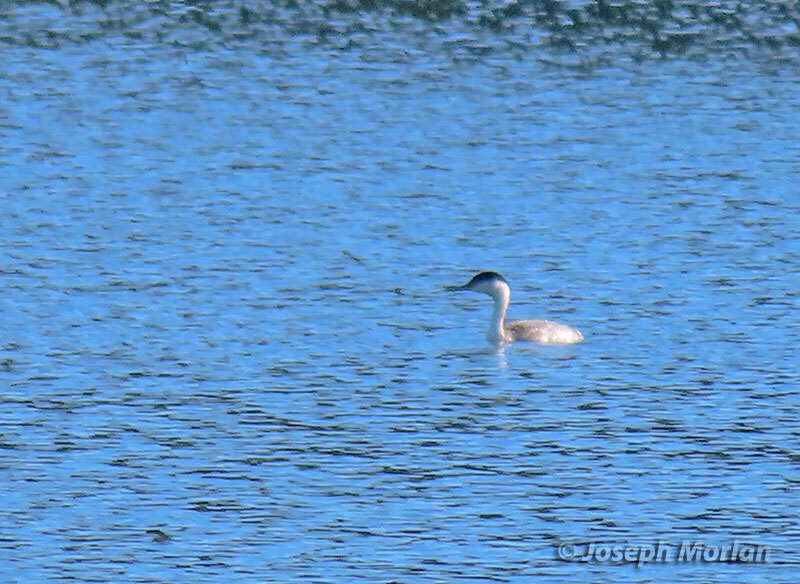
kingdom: Animalia
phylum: Chordata
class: Aves
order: Podicipediformes
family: Podicipedidae
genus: Aechmophorus
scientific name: Aechmophorus occidentalis
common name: Western grebe
